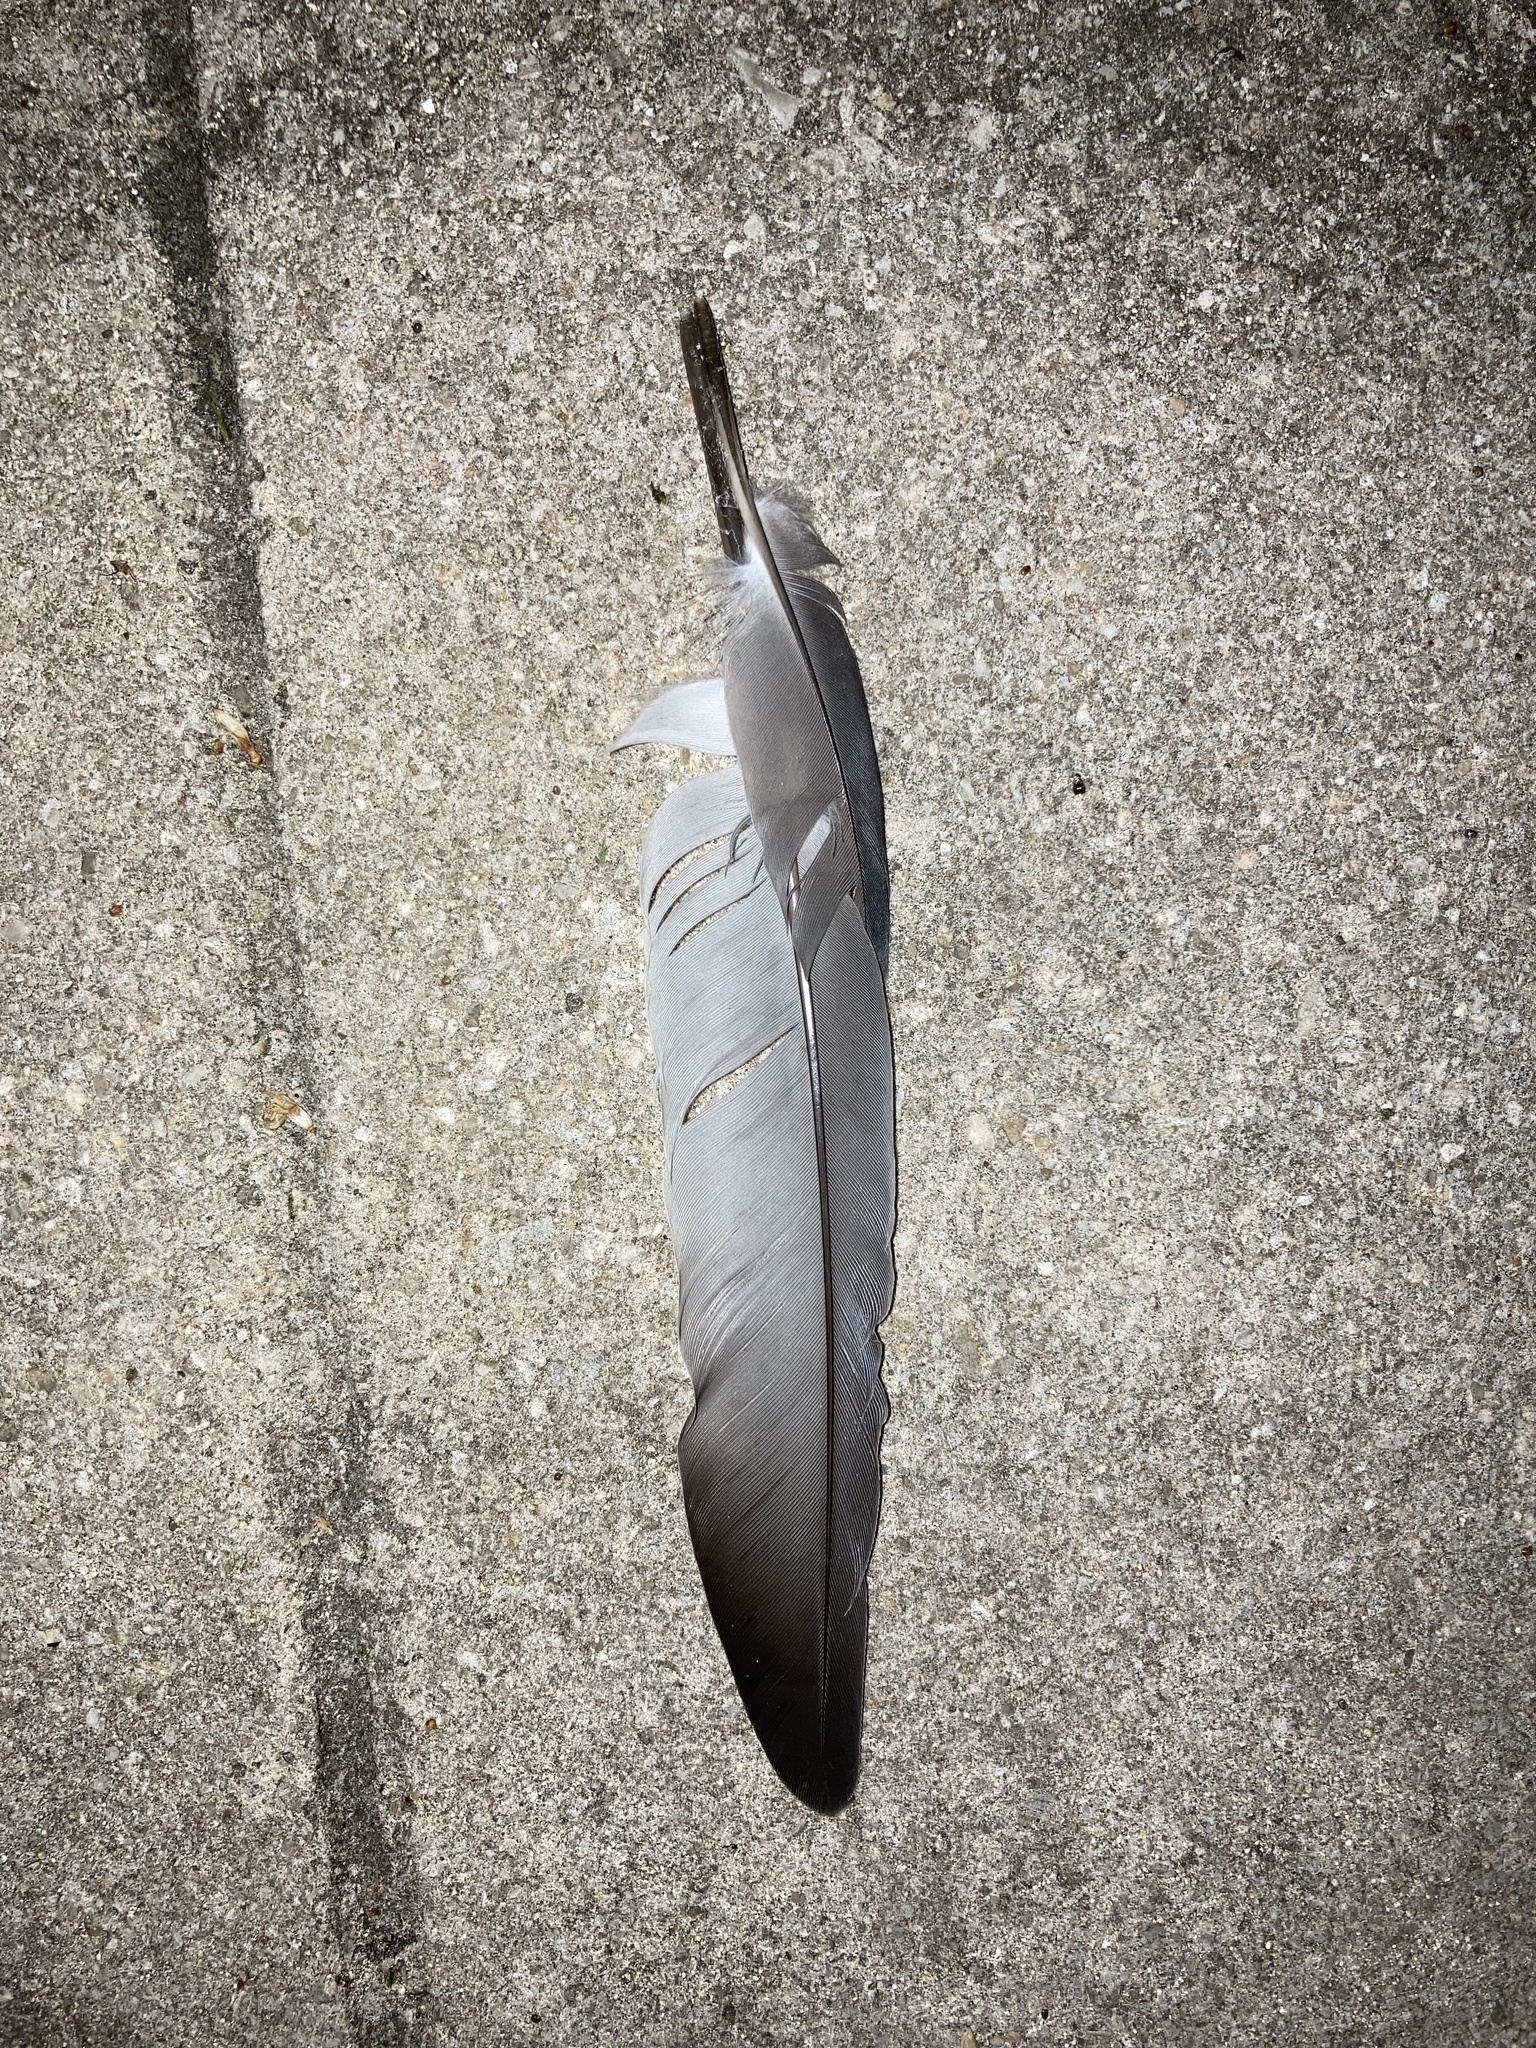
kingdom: Animalia
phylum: Chordata
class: Aves
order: Columbiformes
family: Columbidae
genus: Columba
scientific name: Columba livia
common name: Rock pigeon
